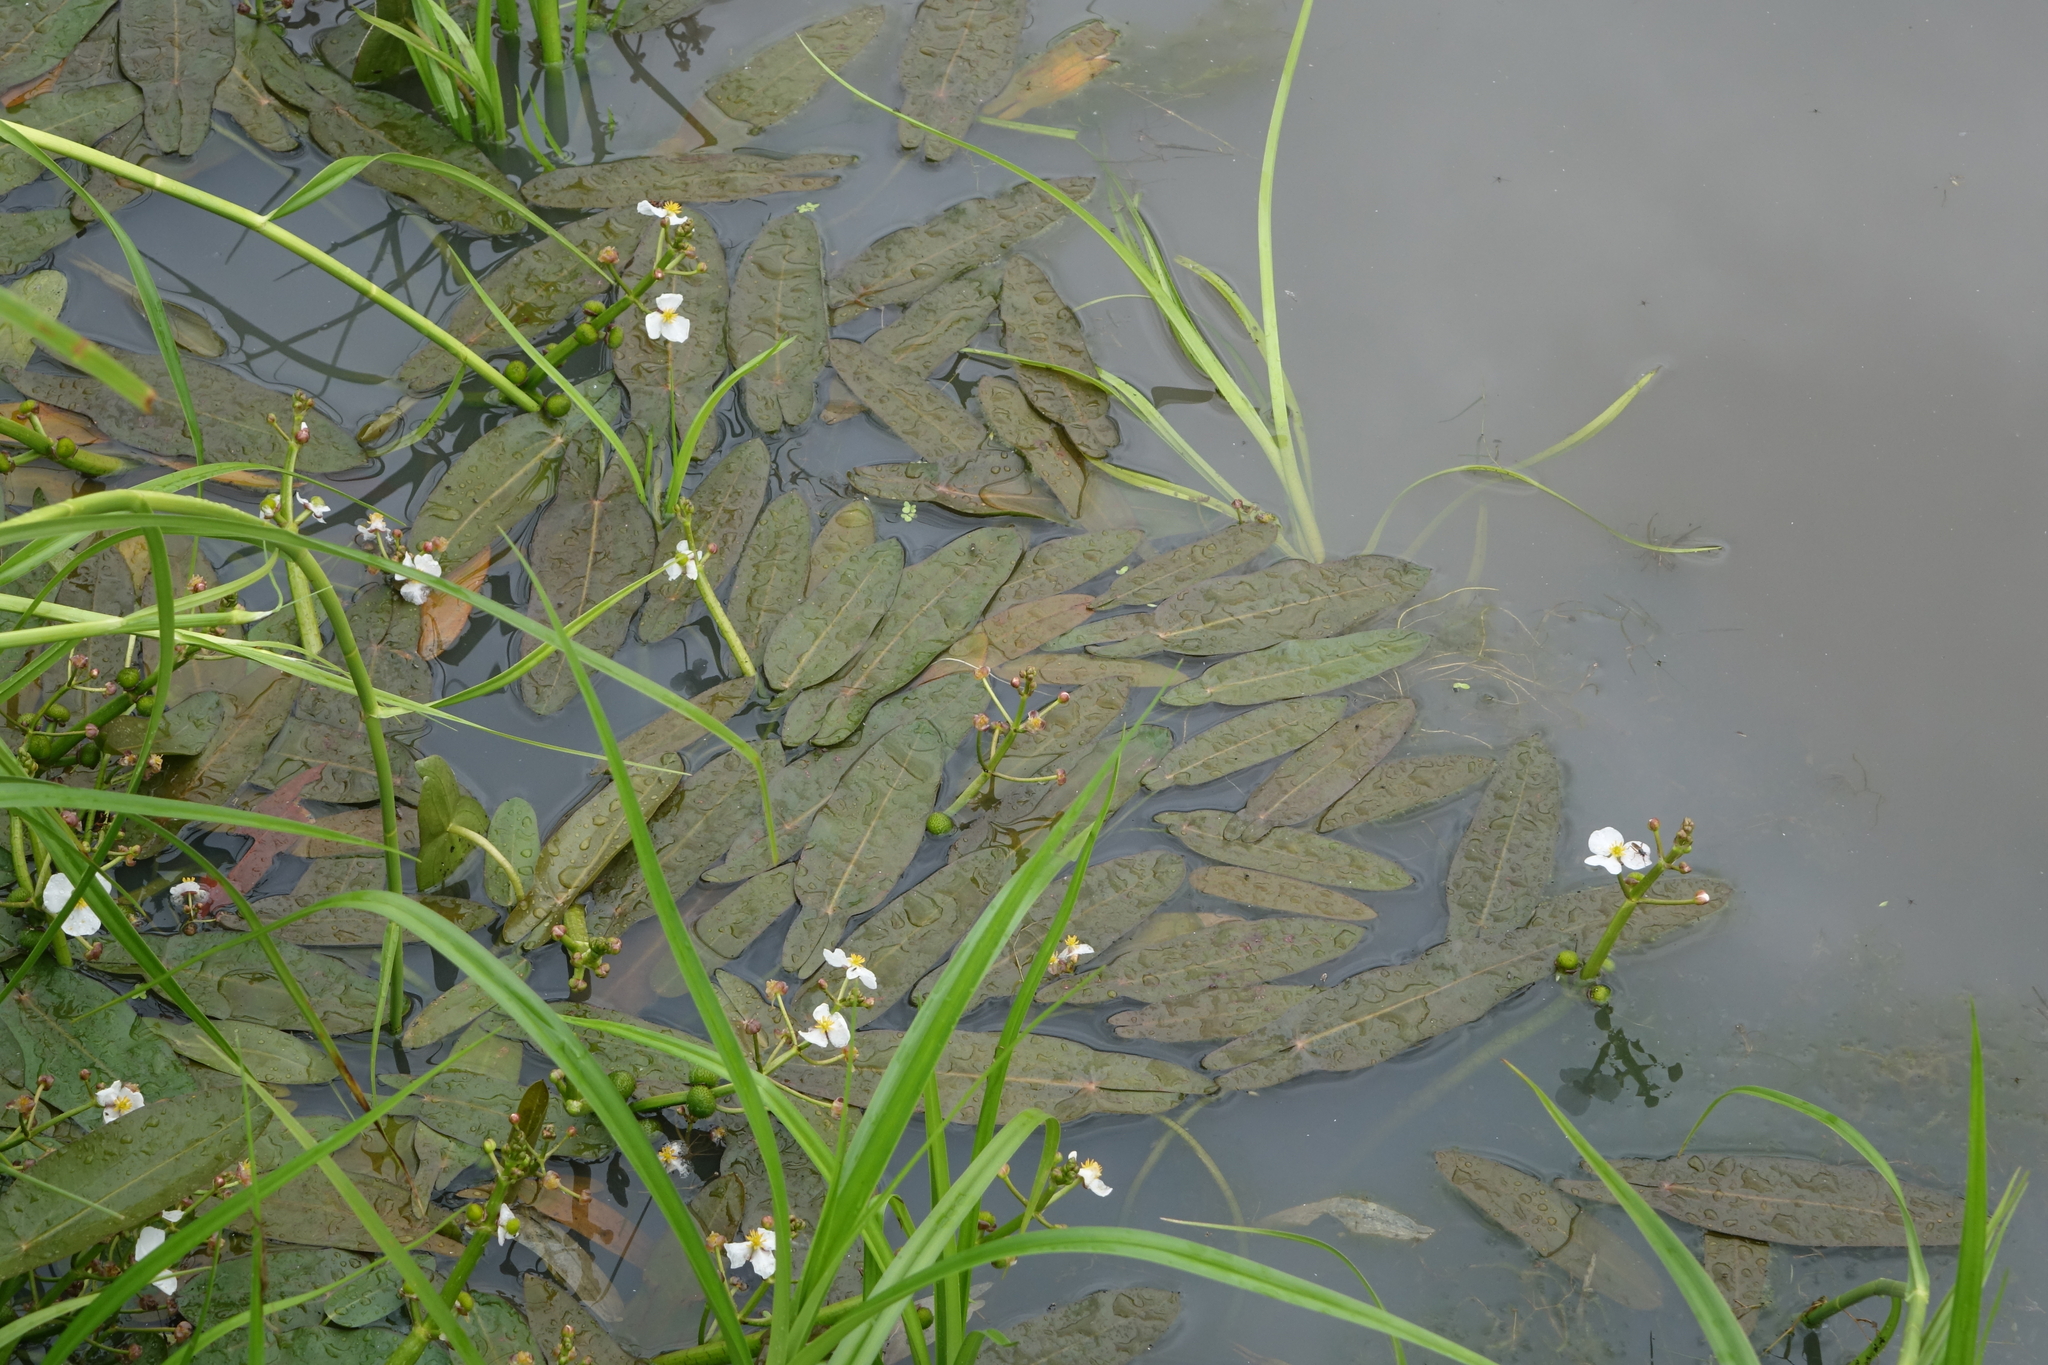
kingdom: Plantae
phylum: Tracheophyta
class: Liliopsida
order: Alismatales
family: Alismataceae
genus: Sagittaria
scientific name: Sagittaria natans
